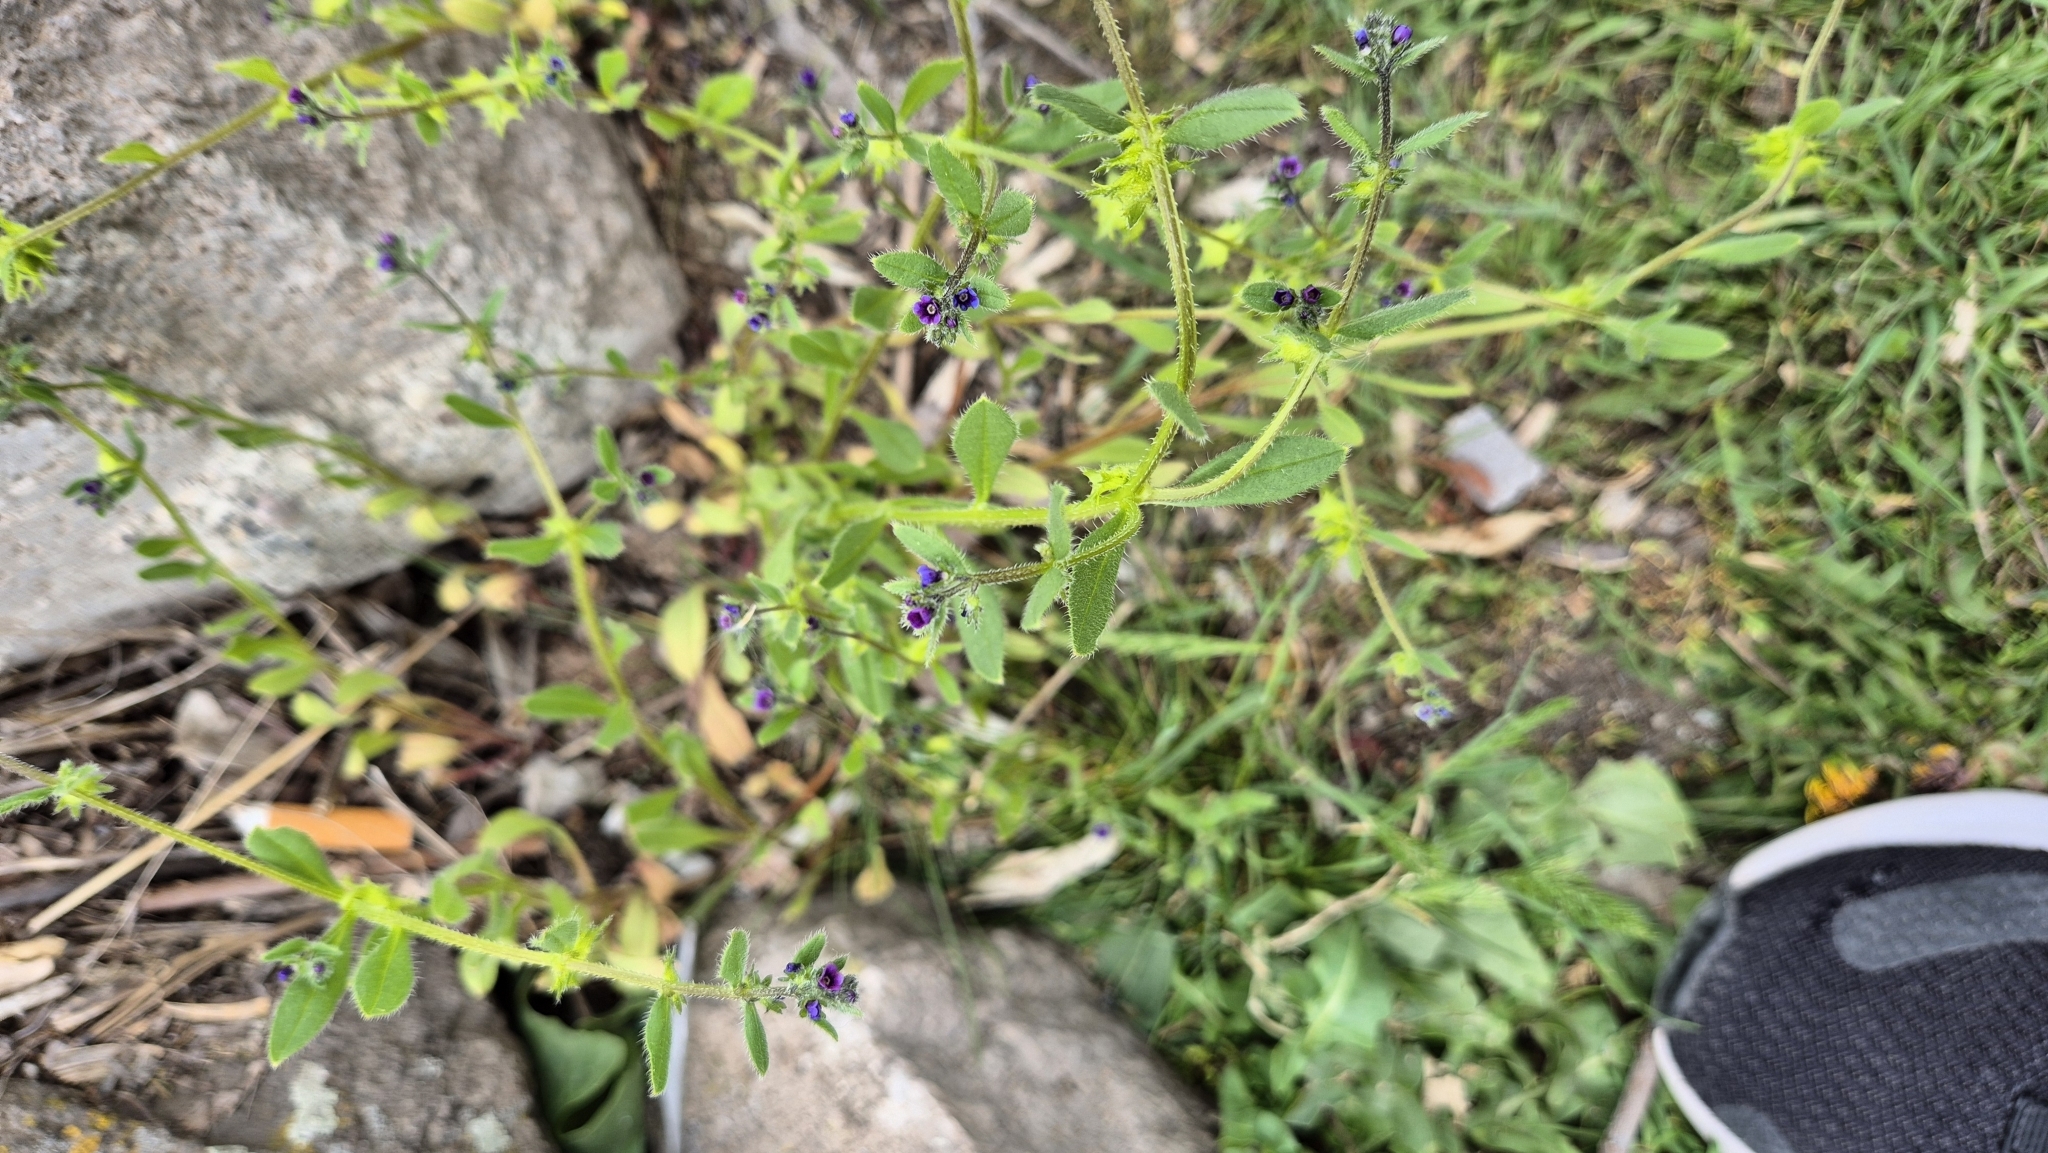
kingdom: Plantae
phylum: Tracheophyta
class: Magnoliopsida
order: Boraginales
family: Boraginaceae
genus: Asperugo
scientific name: Asperugo procumbens
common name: Madwort
